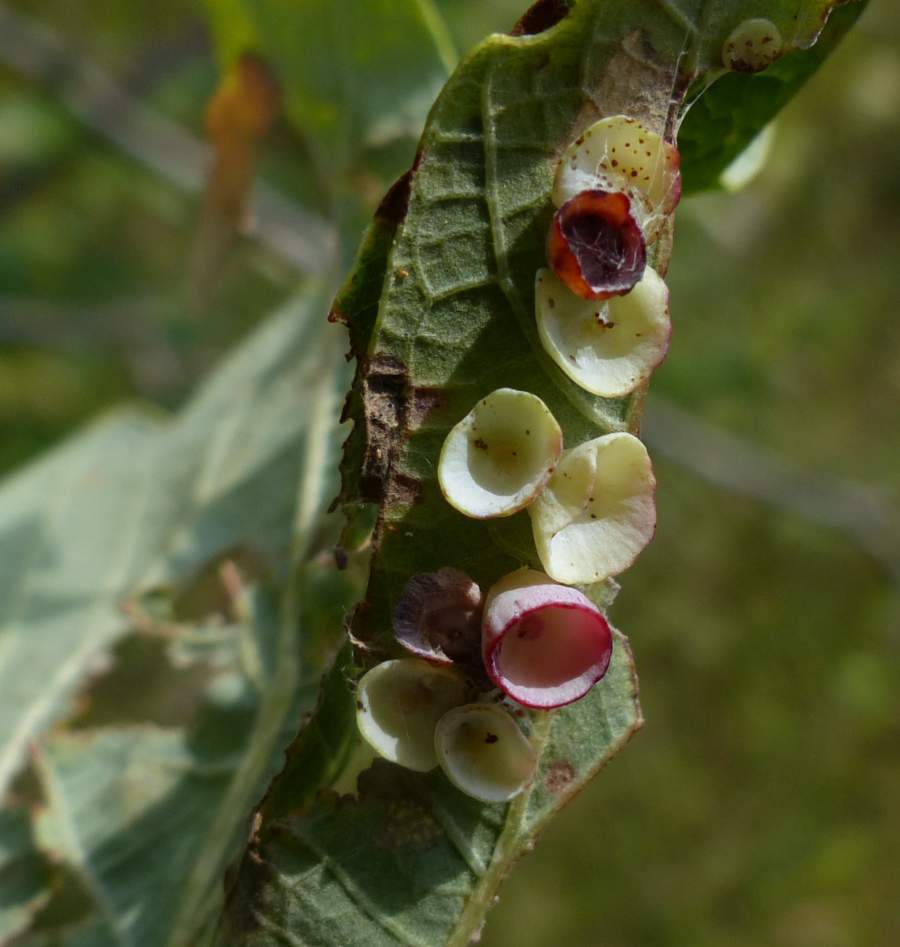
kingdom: Animalia
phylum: Arthropoda
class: Insecta
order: Hymenoptera
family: Cynipidae
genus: Phylloteras
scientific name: Phylloteras
